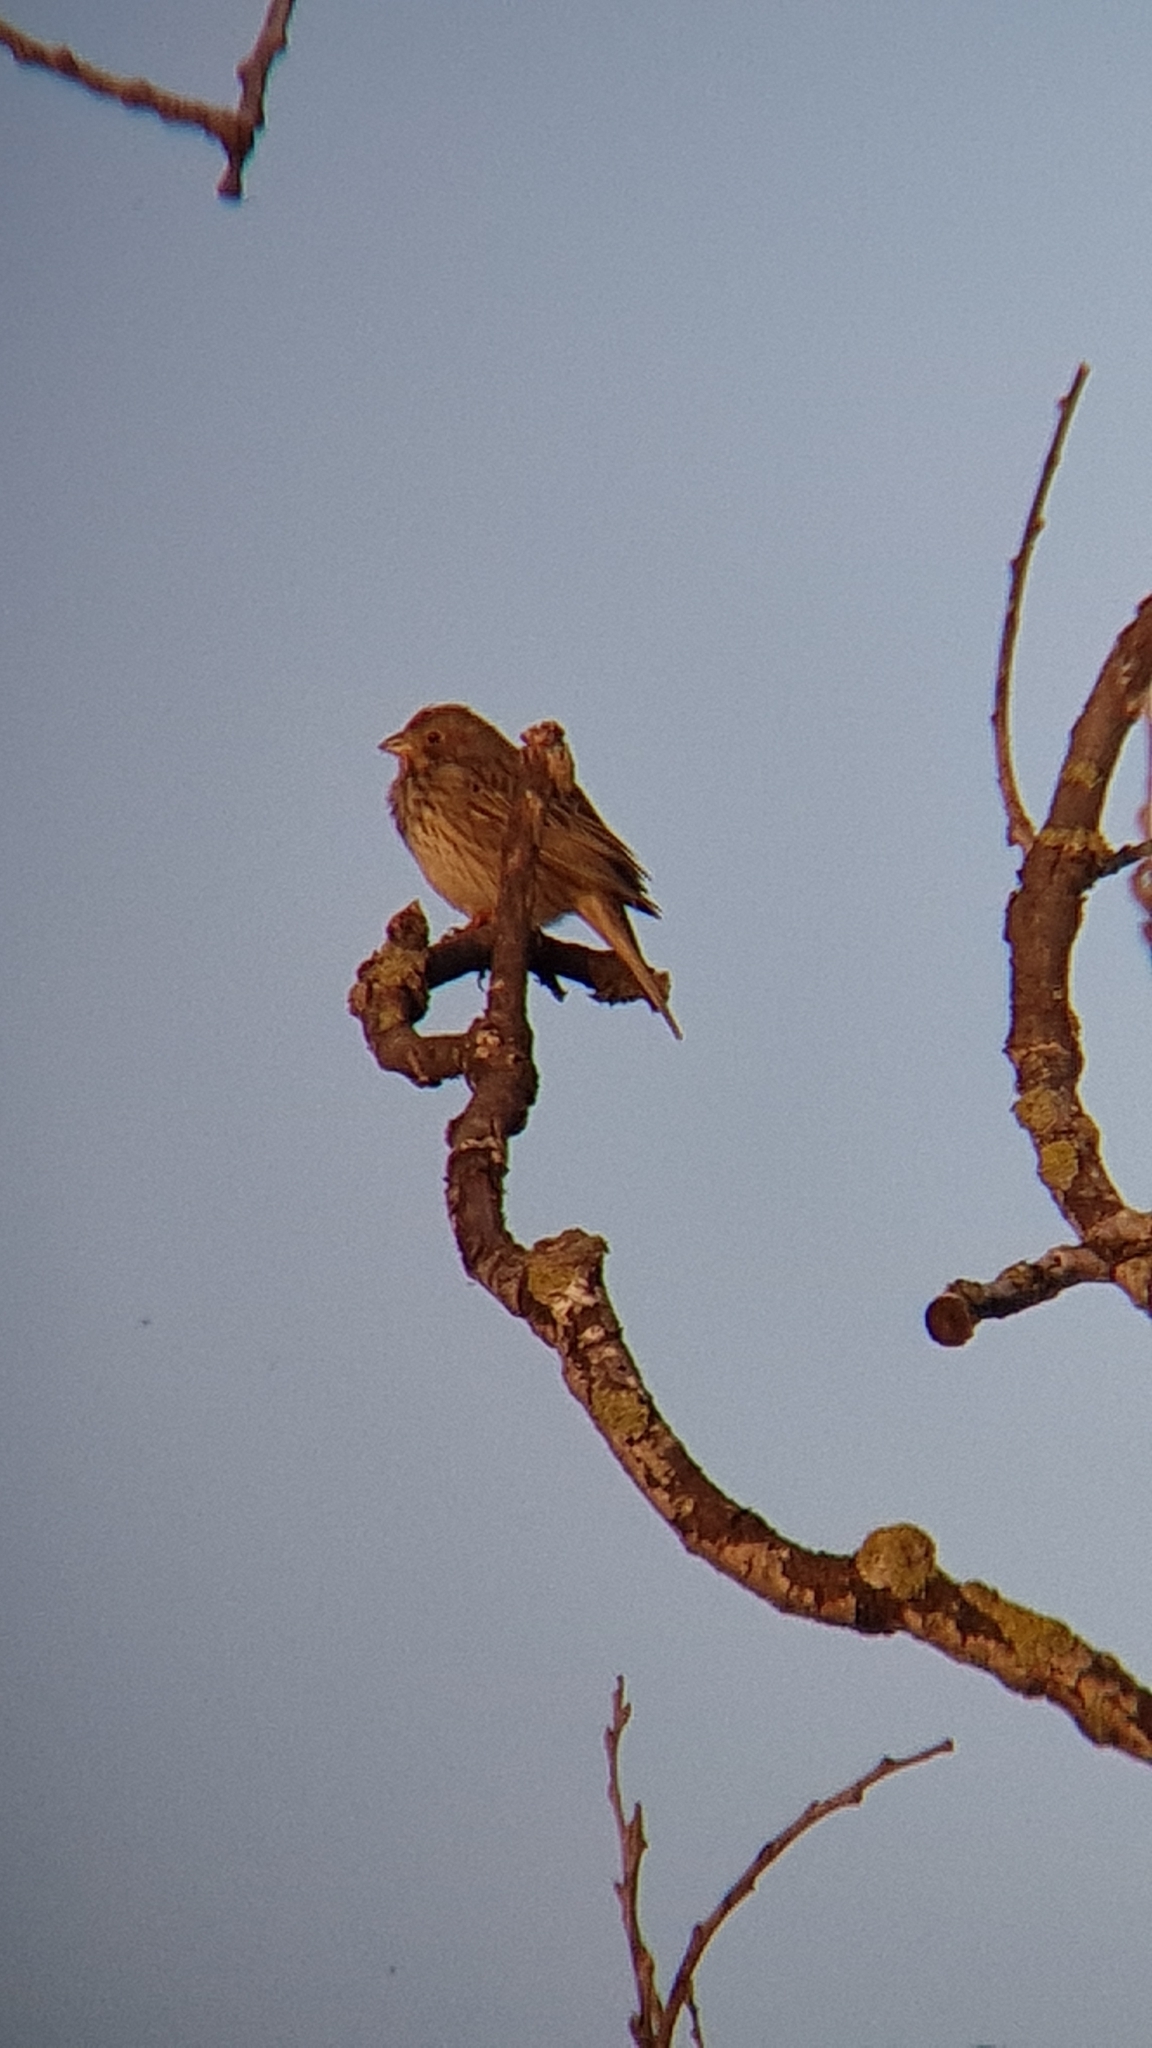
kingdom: Animalia
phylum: Chordata
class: Aves
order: Passeriformes
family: Emberizidae
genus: Emberiza
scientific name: Emberiza calandra
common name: Corn bunting
